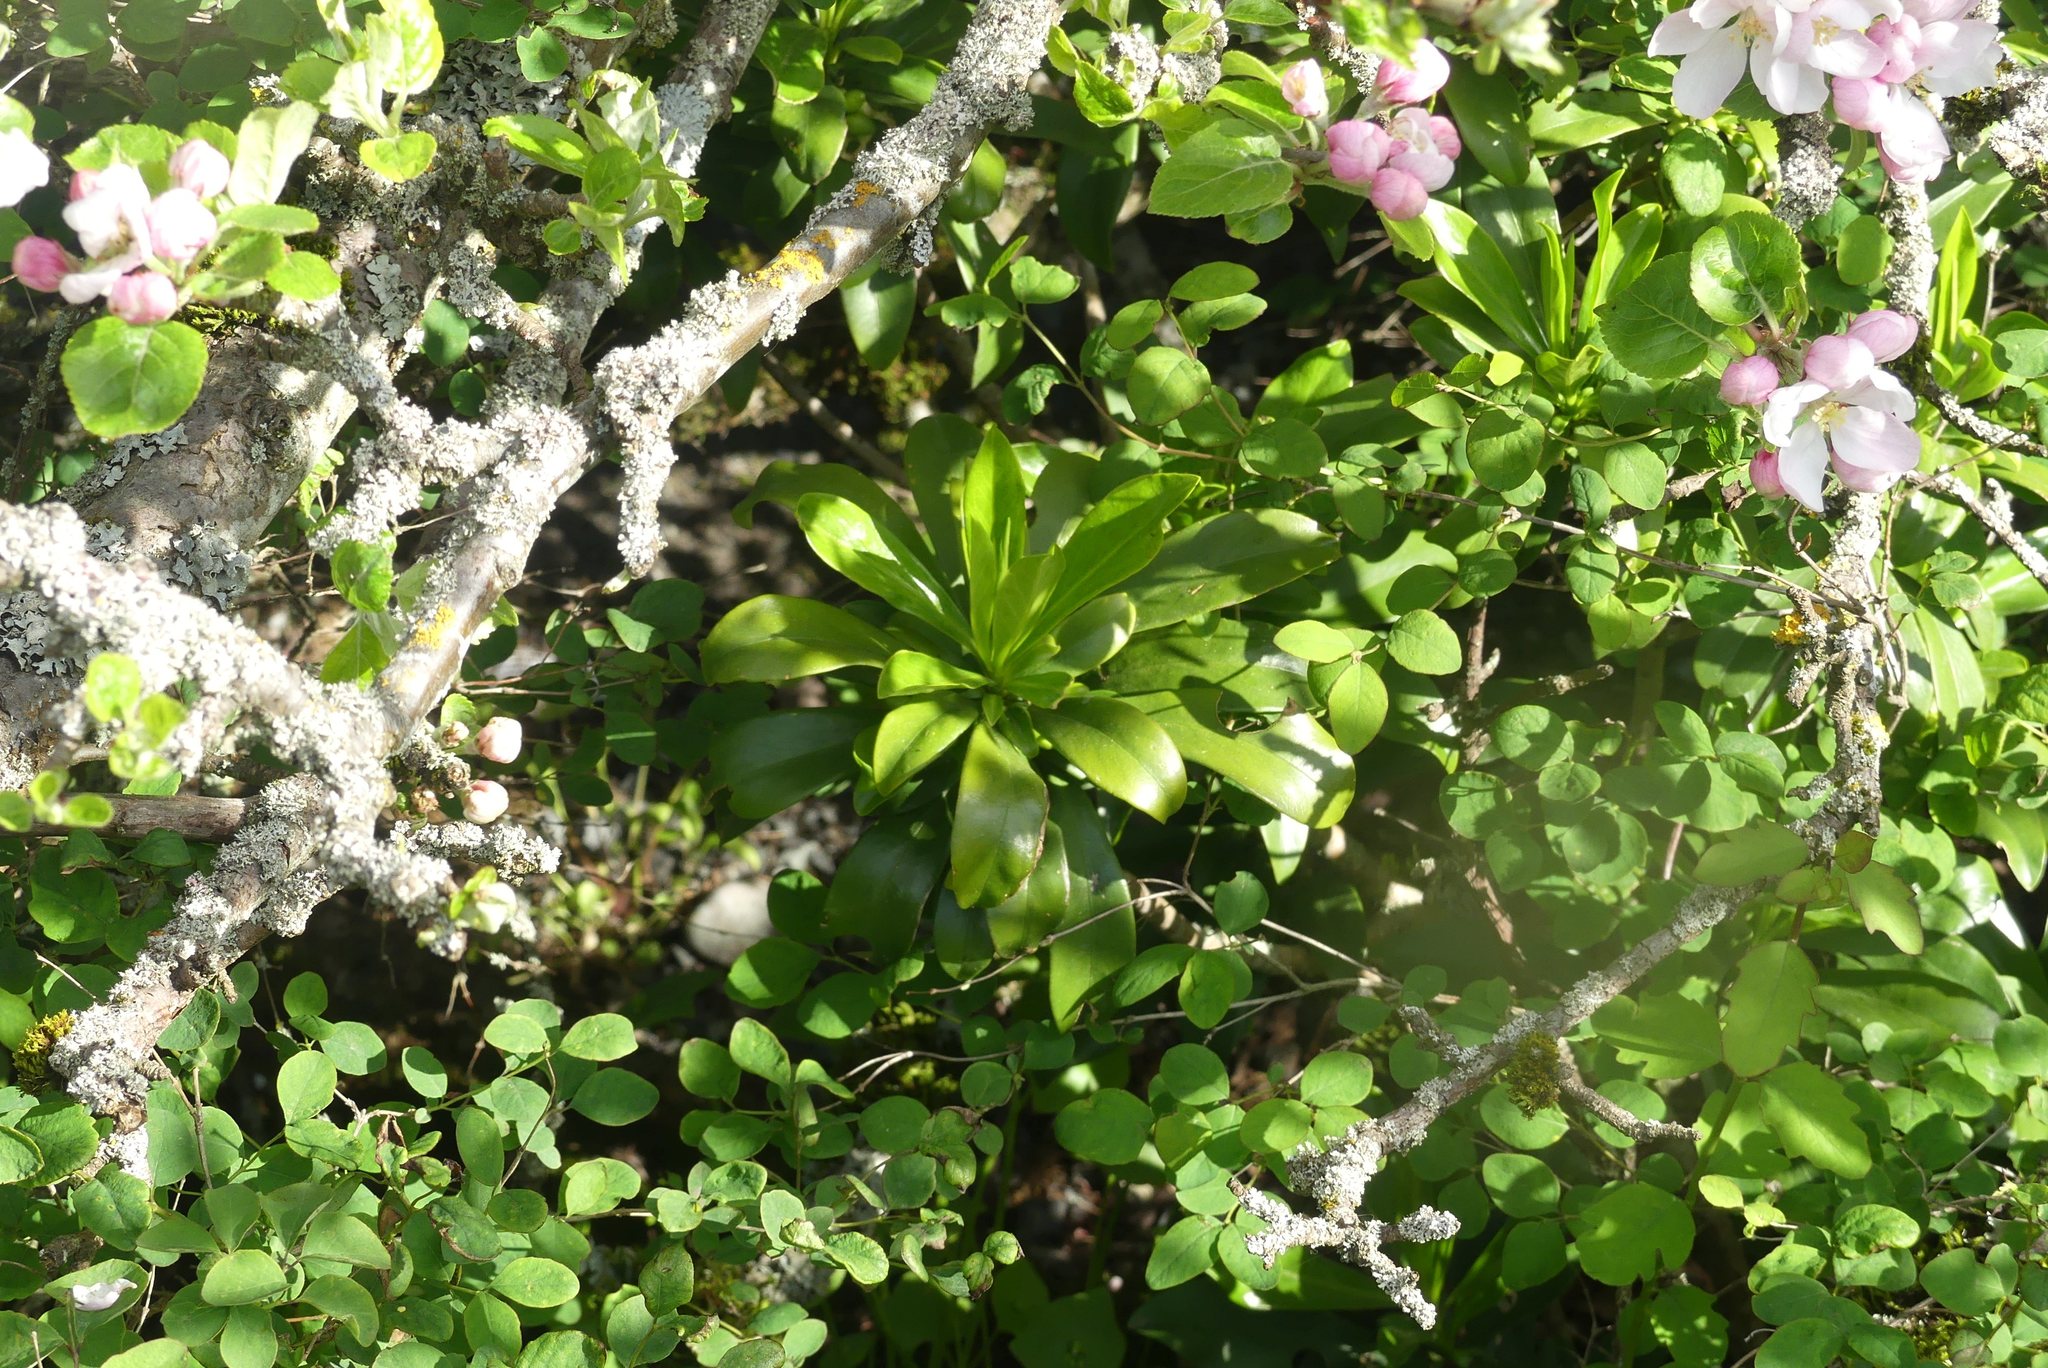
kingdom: Plantae
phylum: Tracheophyta
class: Magnoliopsida
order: Malvales
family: Thymelaeaceae
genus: Daphne
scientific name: Daphne laureola
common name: Spurge-laurel
